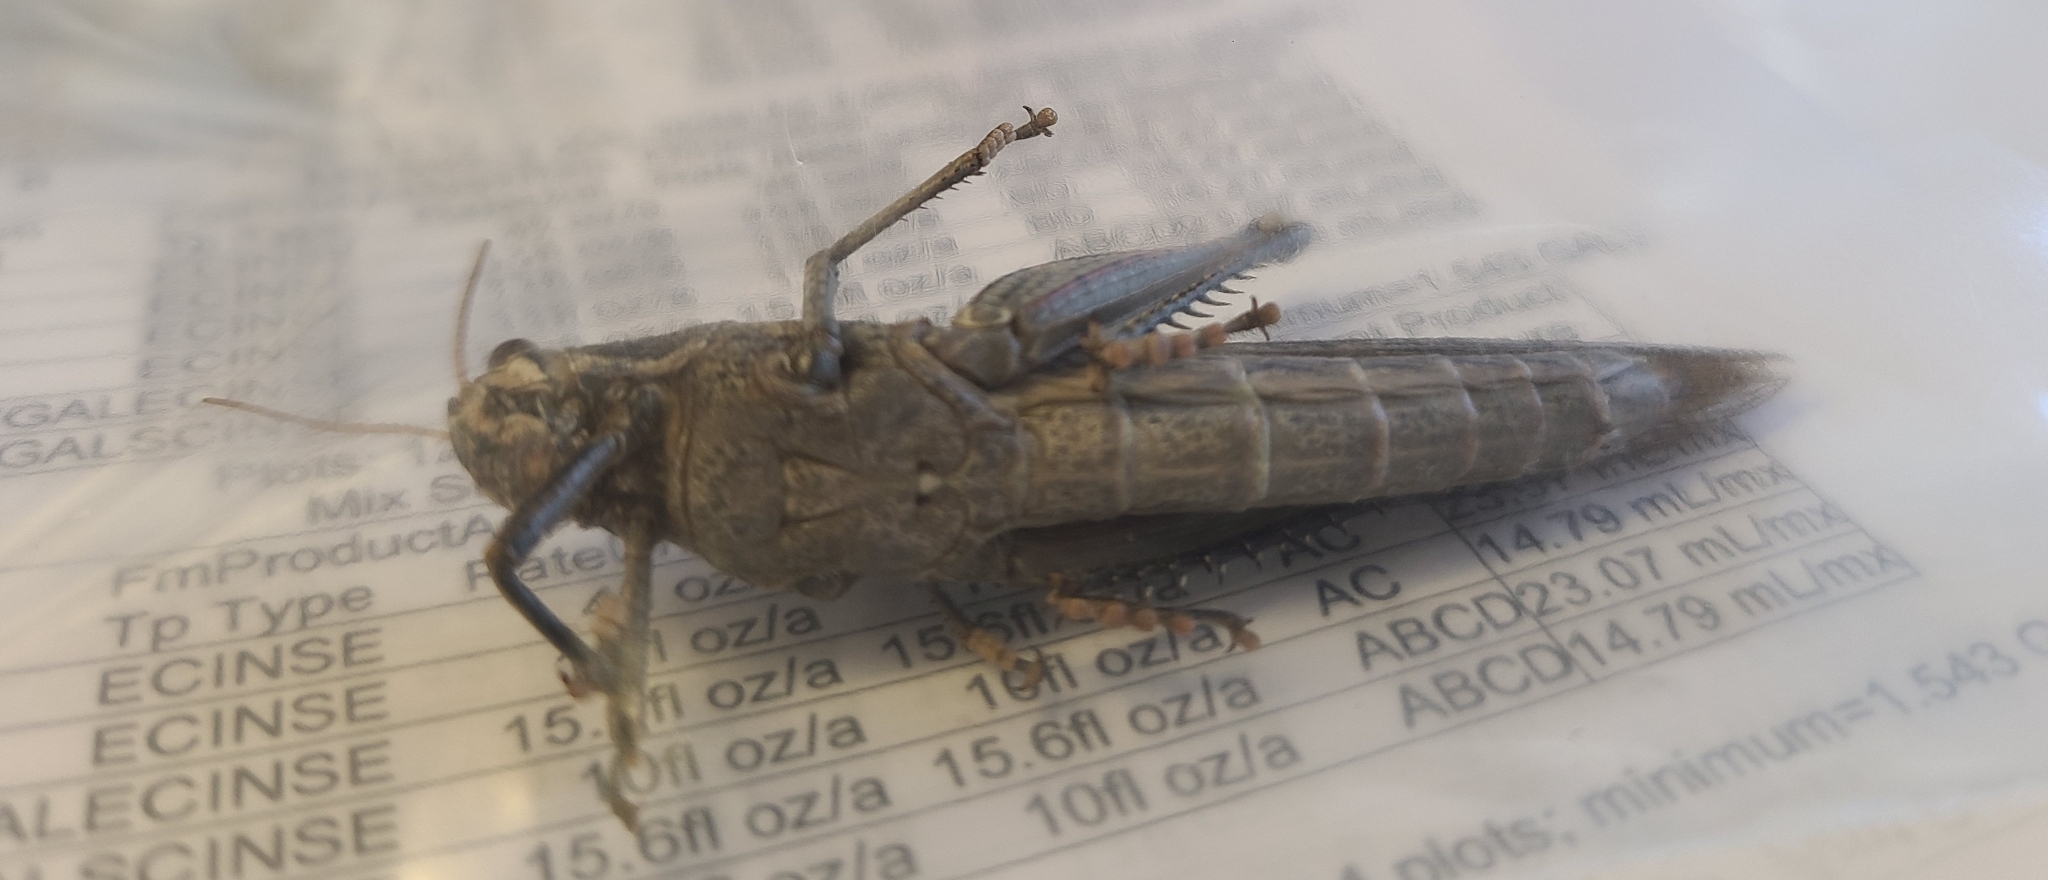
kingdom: Animalia
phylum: Arthropoda
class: Insecta
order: Orthoptera
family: Acrididae
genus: Schistocerca
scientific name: Schistocerca nitens
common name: Vagrant grasshopper
